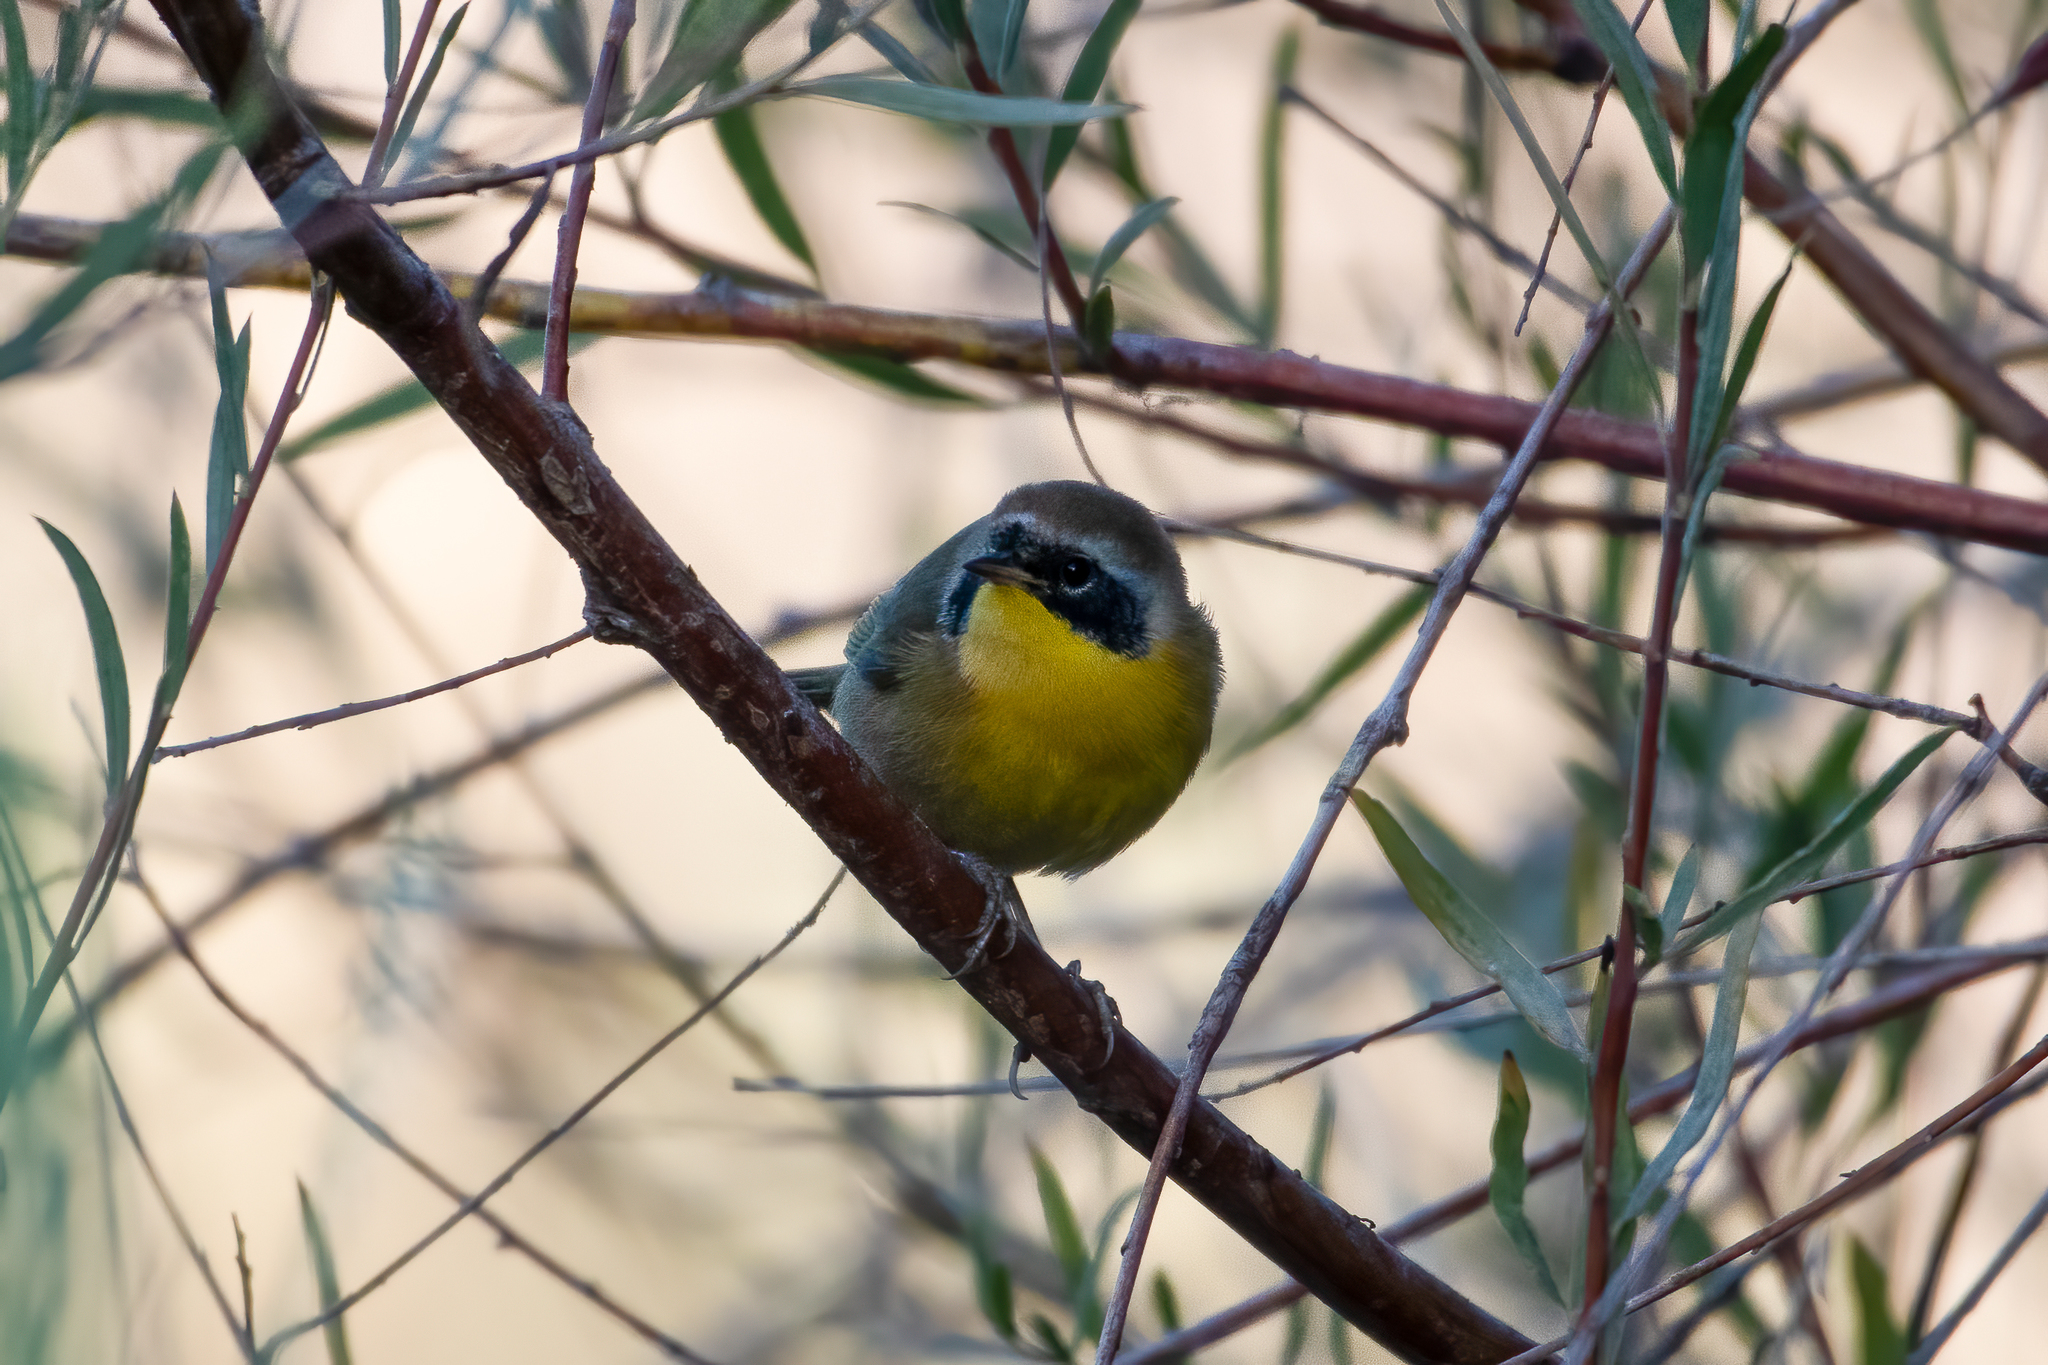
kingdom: Animalia
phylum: Chordata
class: Aves
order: Passeriformes
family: Parulidae
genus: Geothlypis
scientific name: Geothlypis trichas
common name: Common yellowthroat
